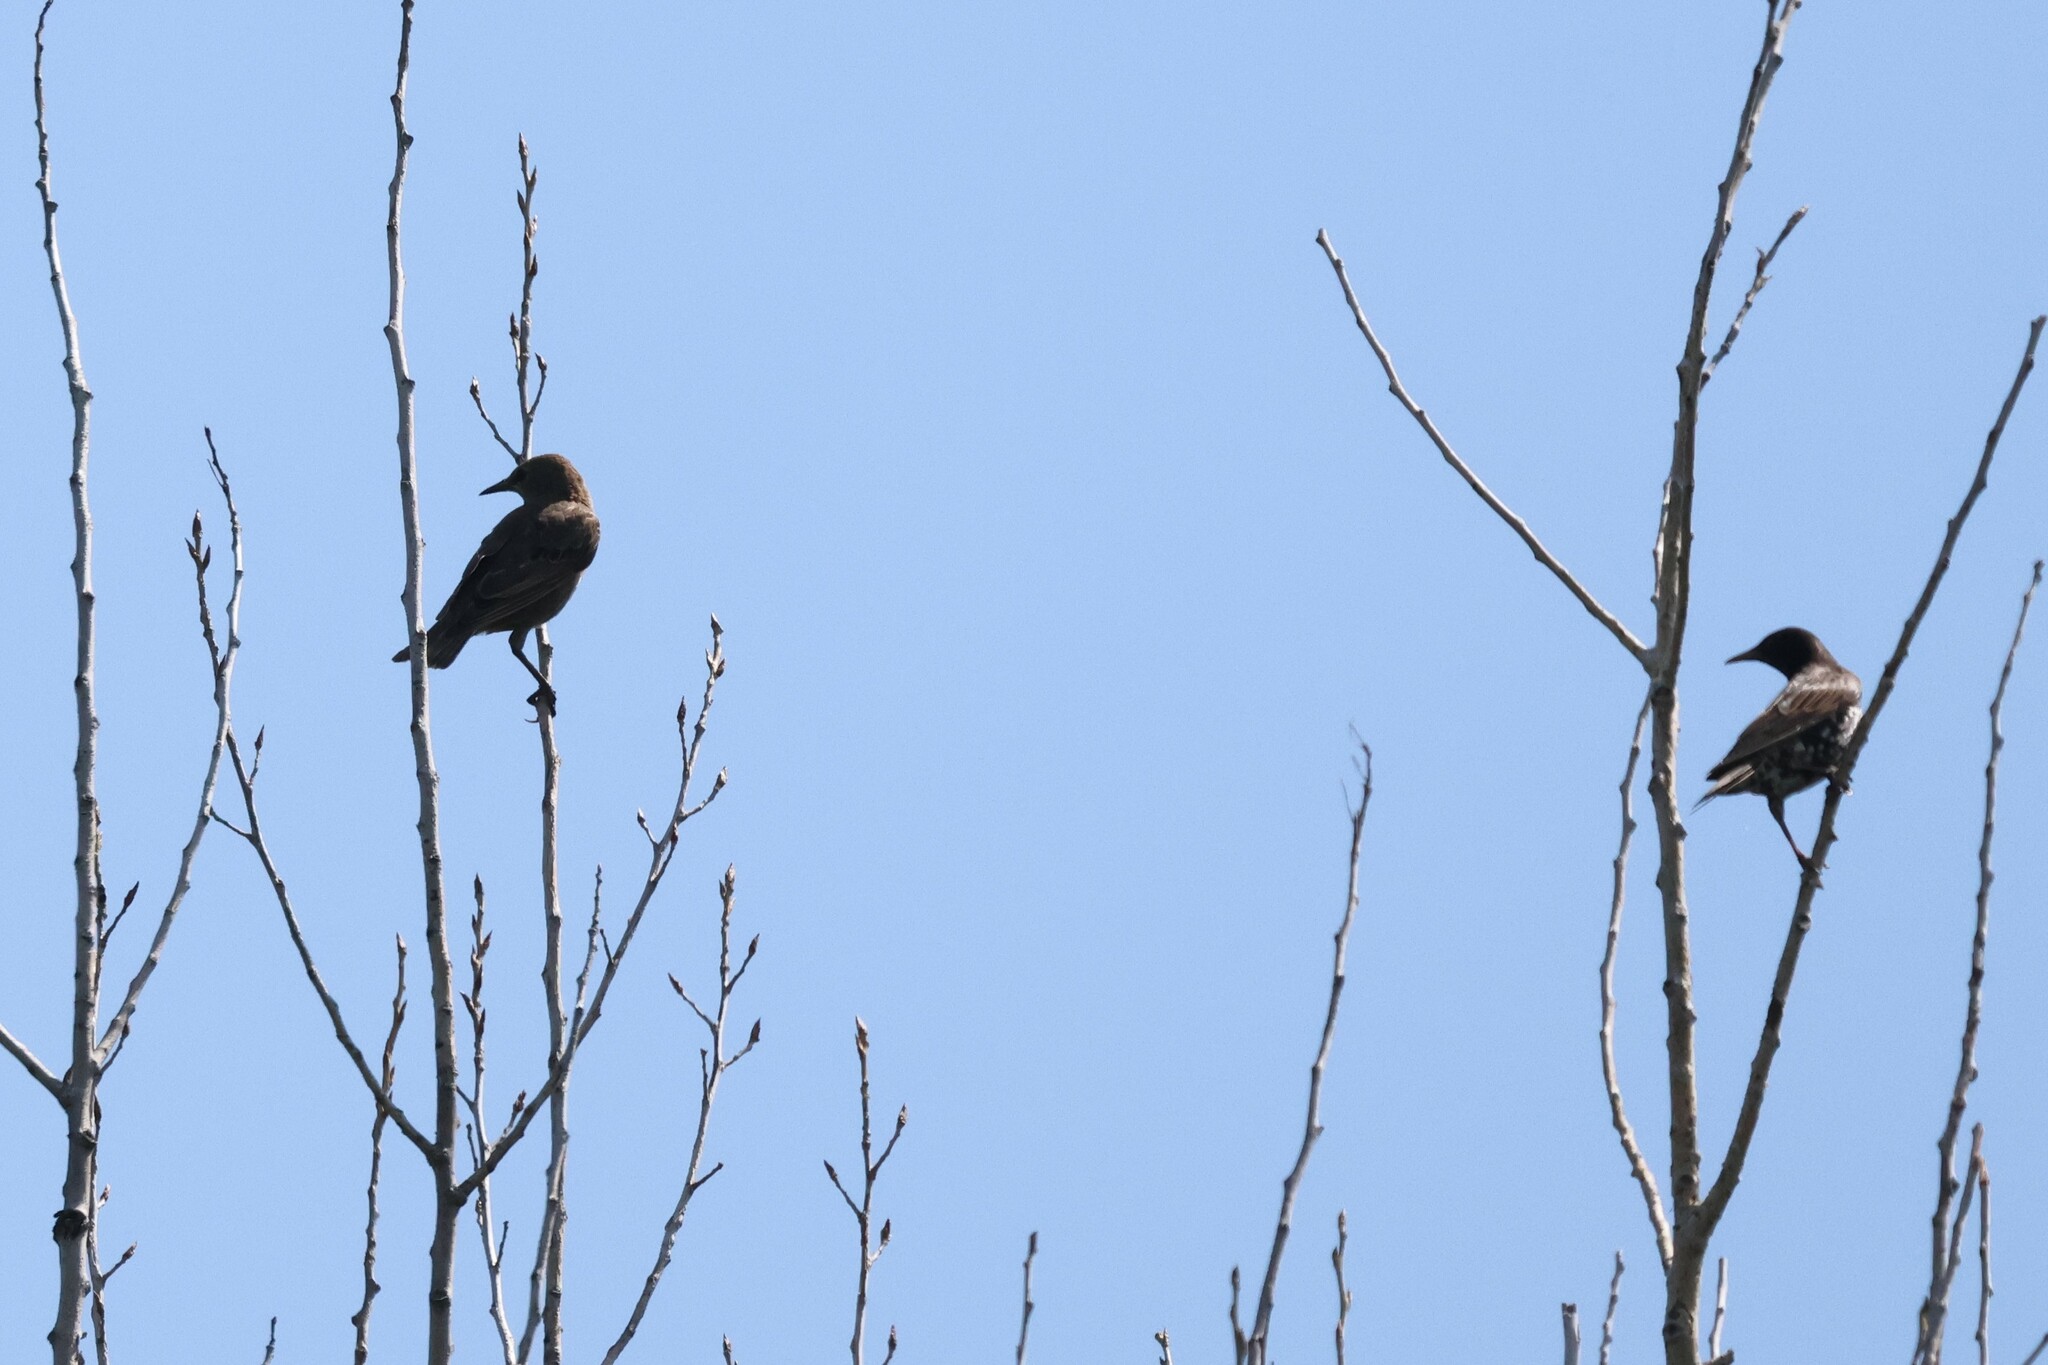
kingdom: Animalia
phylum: Chordata
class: Aves
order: Passeriformes
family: Sturnidae
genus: Sturnus
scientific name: Sturnus vulgaris
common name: Common starling
